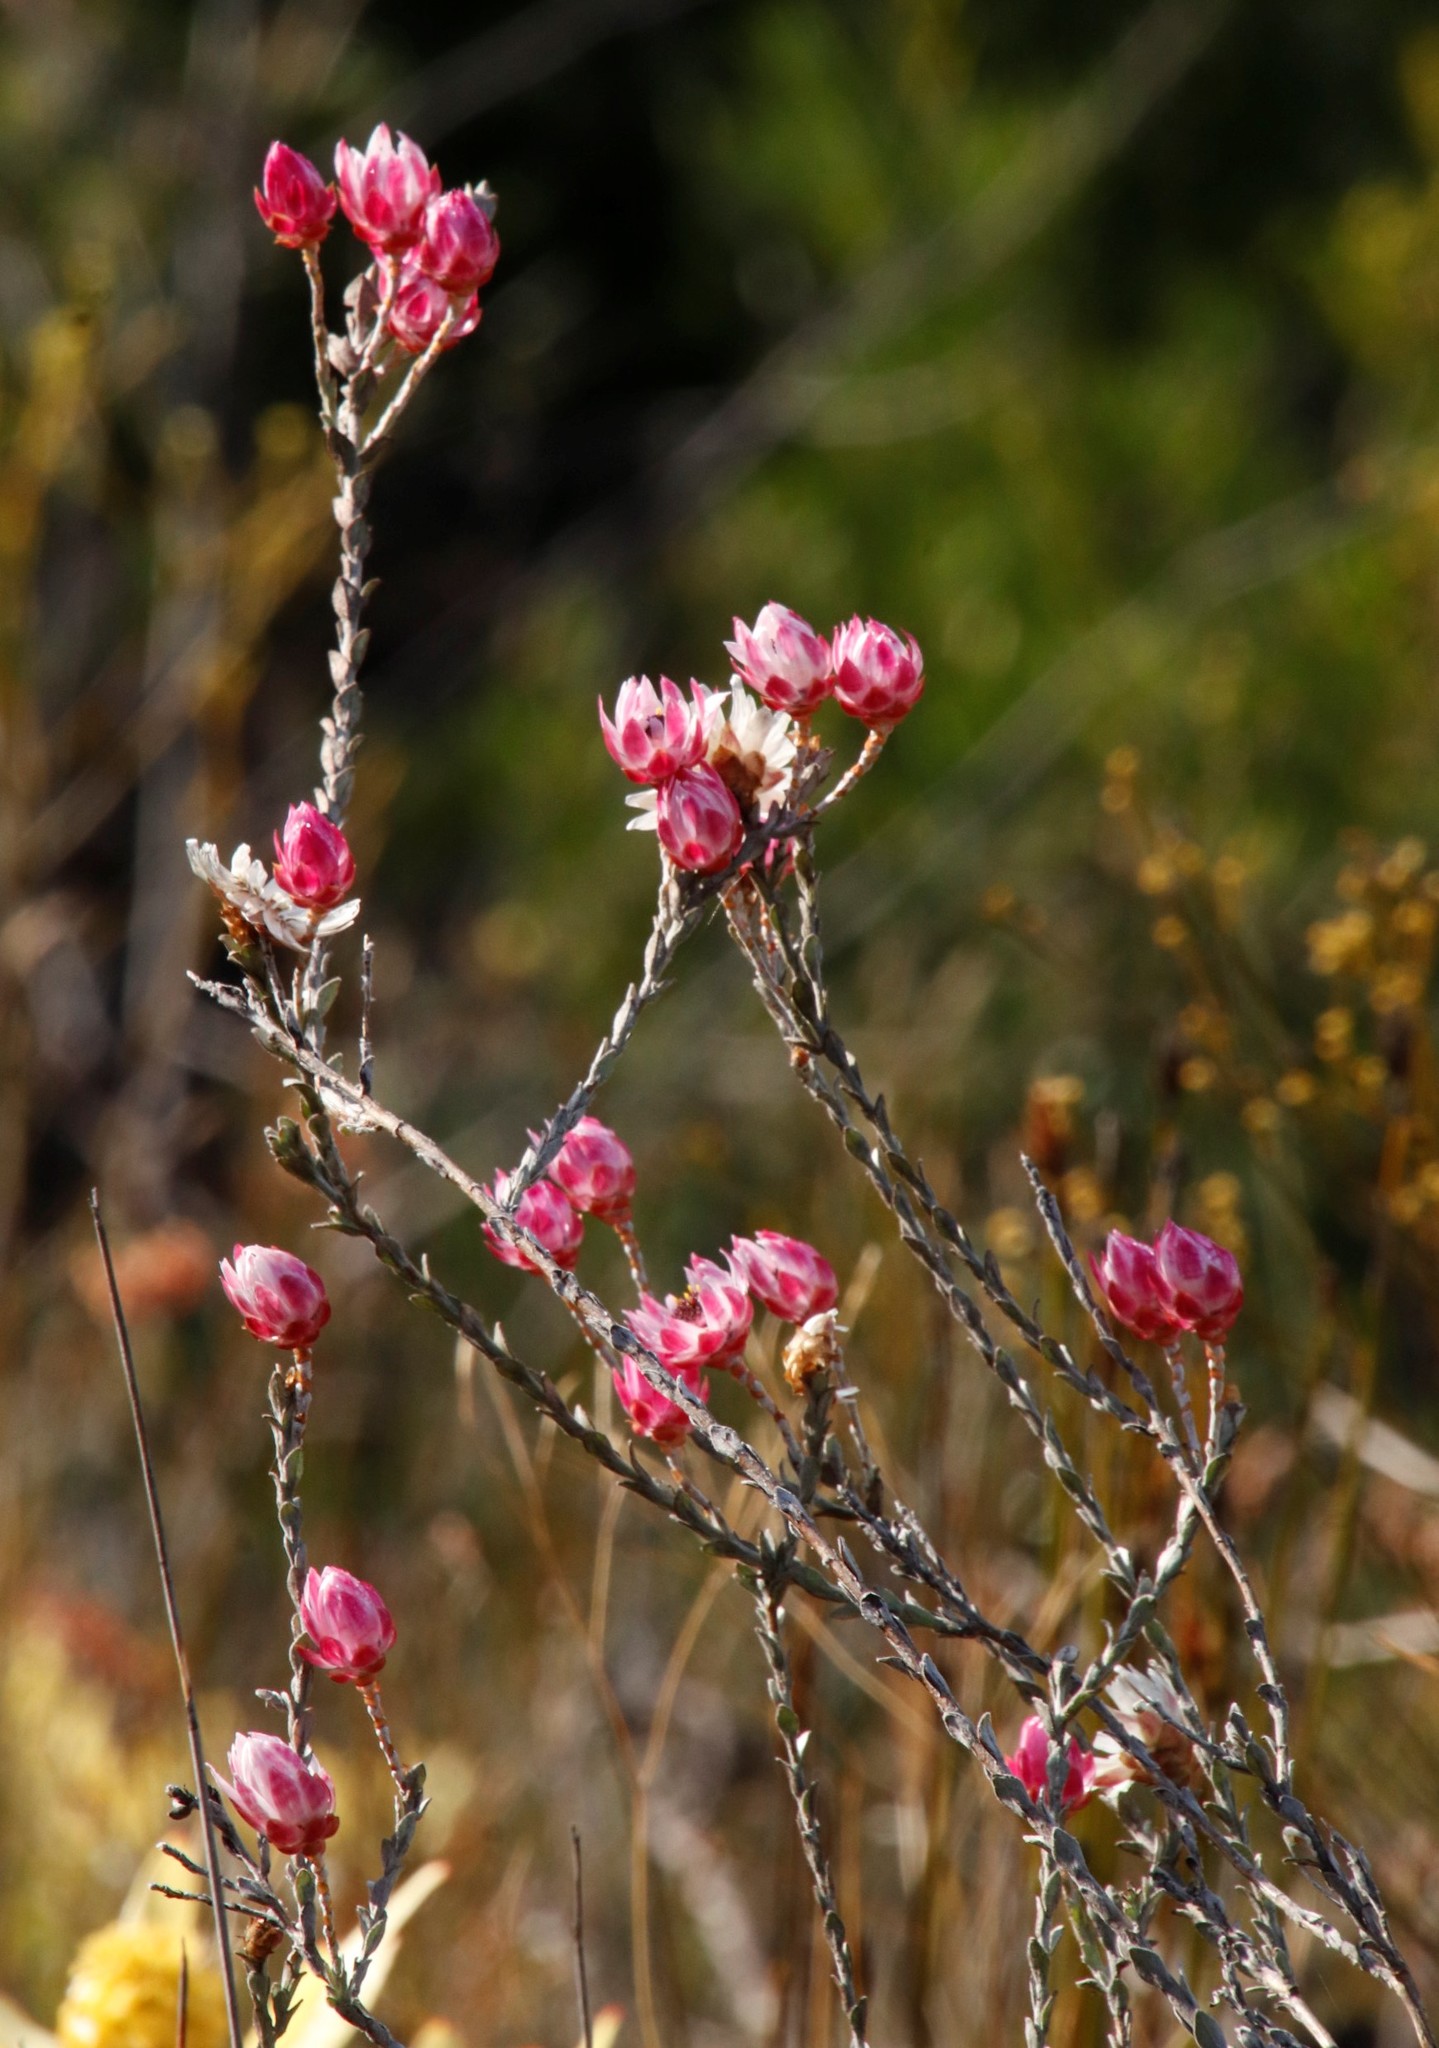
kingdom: Plantae
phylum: Tracheophyta
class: Magnoliopsida
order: Asterales
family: Asteraceae
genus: Syncarpha
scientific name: Syncarpha canescens
